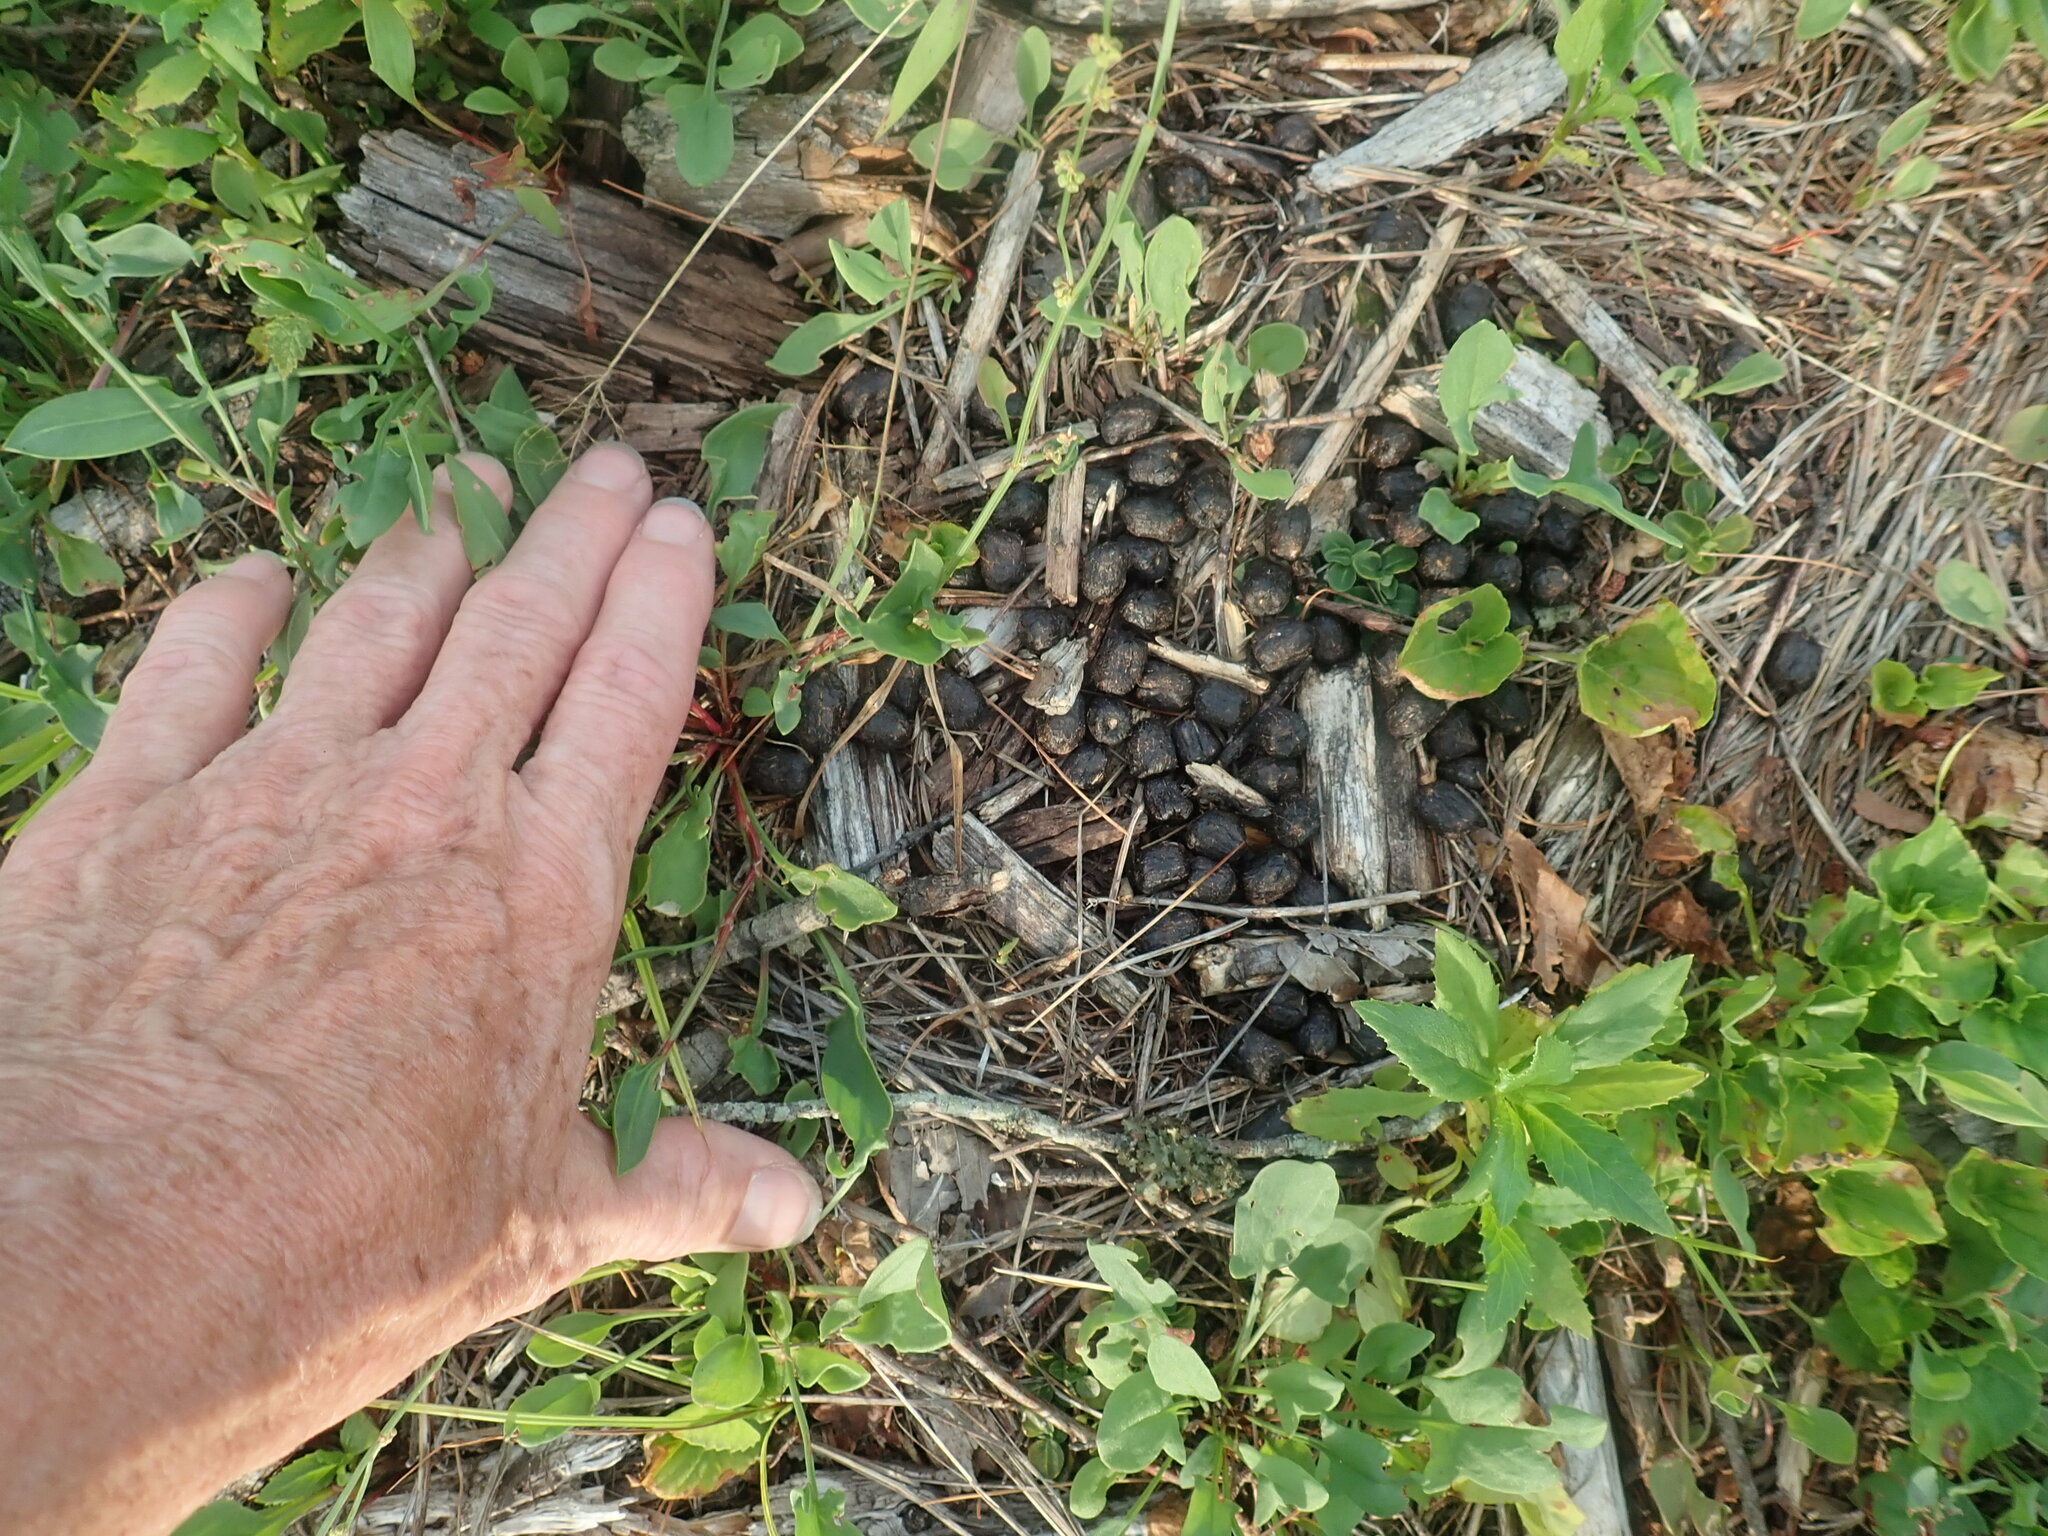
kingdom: Animalia
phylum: Chordata
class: Mammalia
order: Artiodactyla
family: Cervidae
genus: Odocoileus
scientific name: Odocoileus virginianus
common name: White-tailed deer
